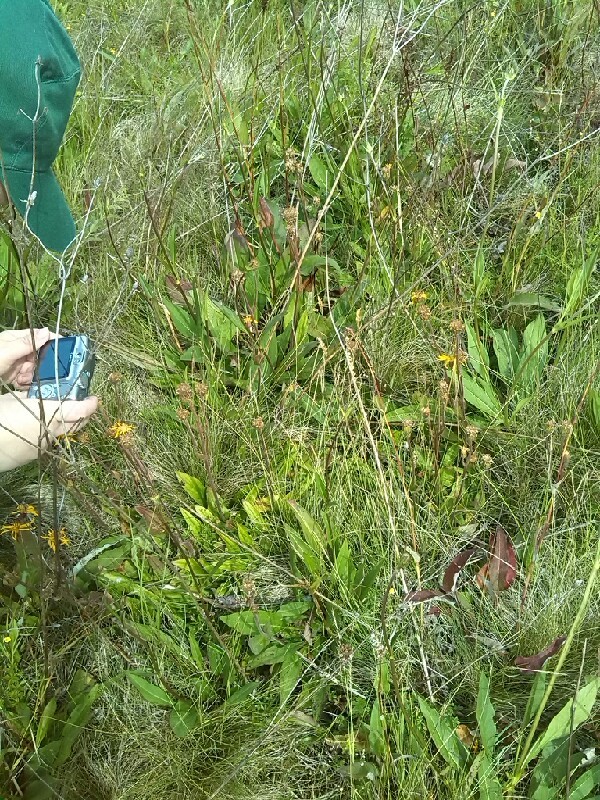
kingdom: Plantae
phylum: Tracheophyta
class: Magnoliopsida
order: Asterales
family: Asteraceae
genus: Arnica
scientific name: Arnica montana
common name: Leopard's bane
